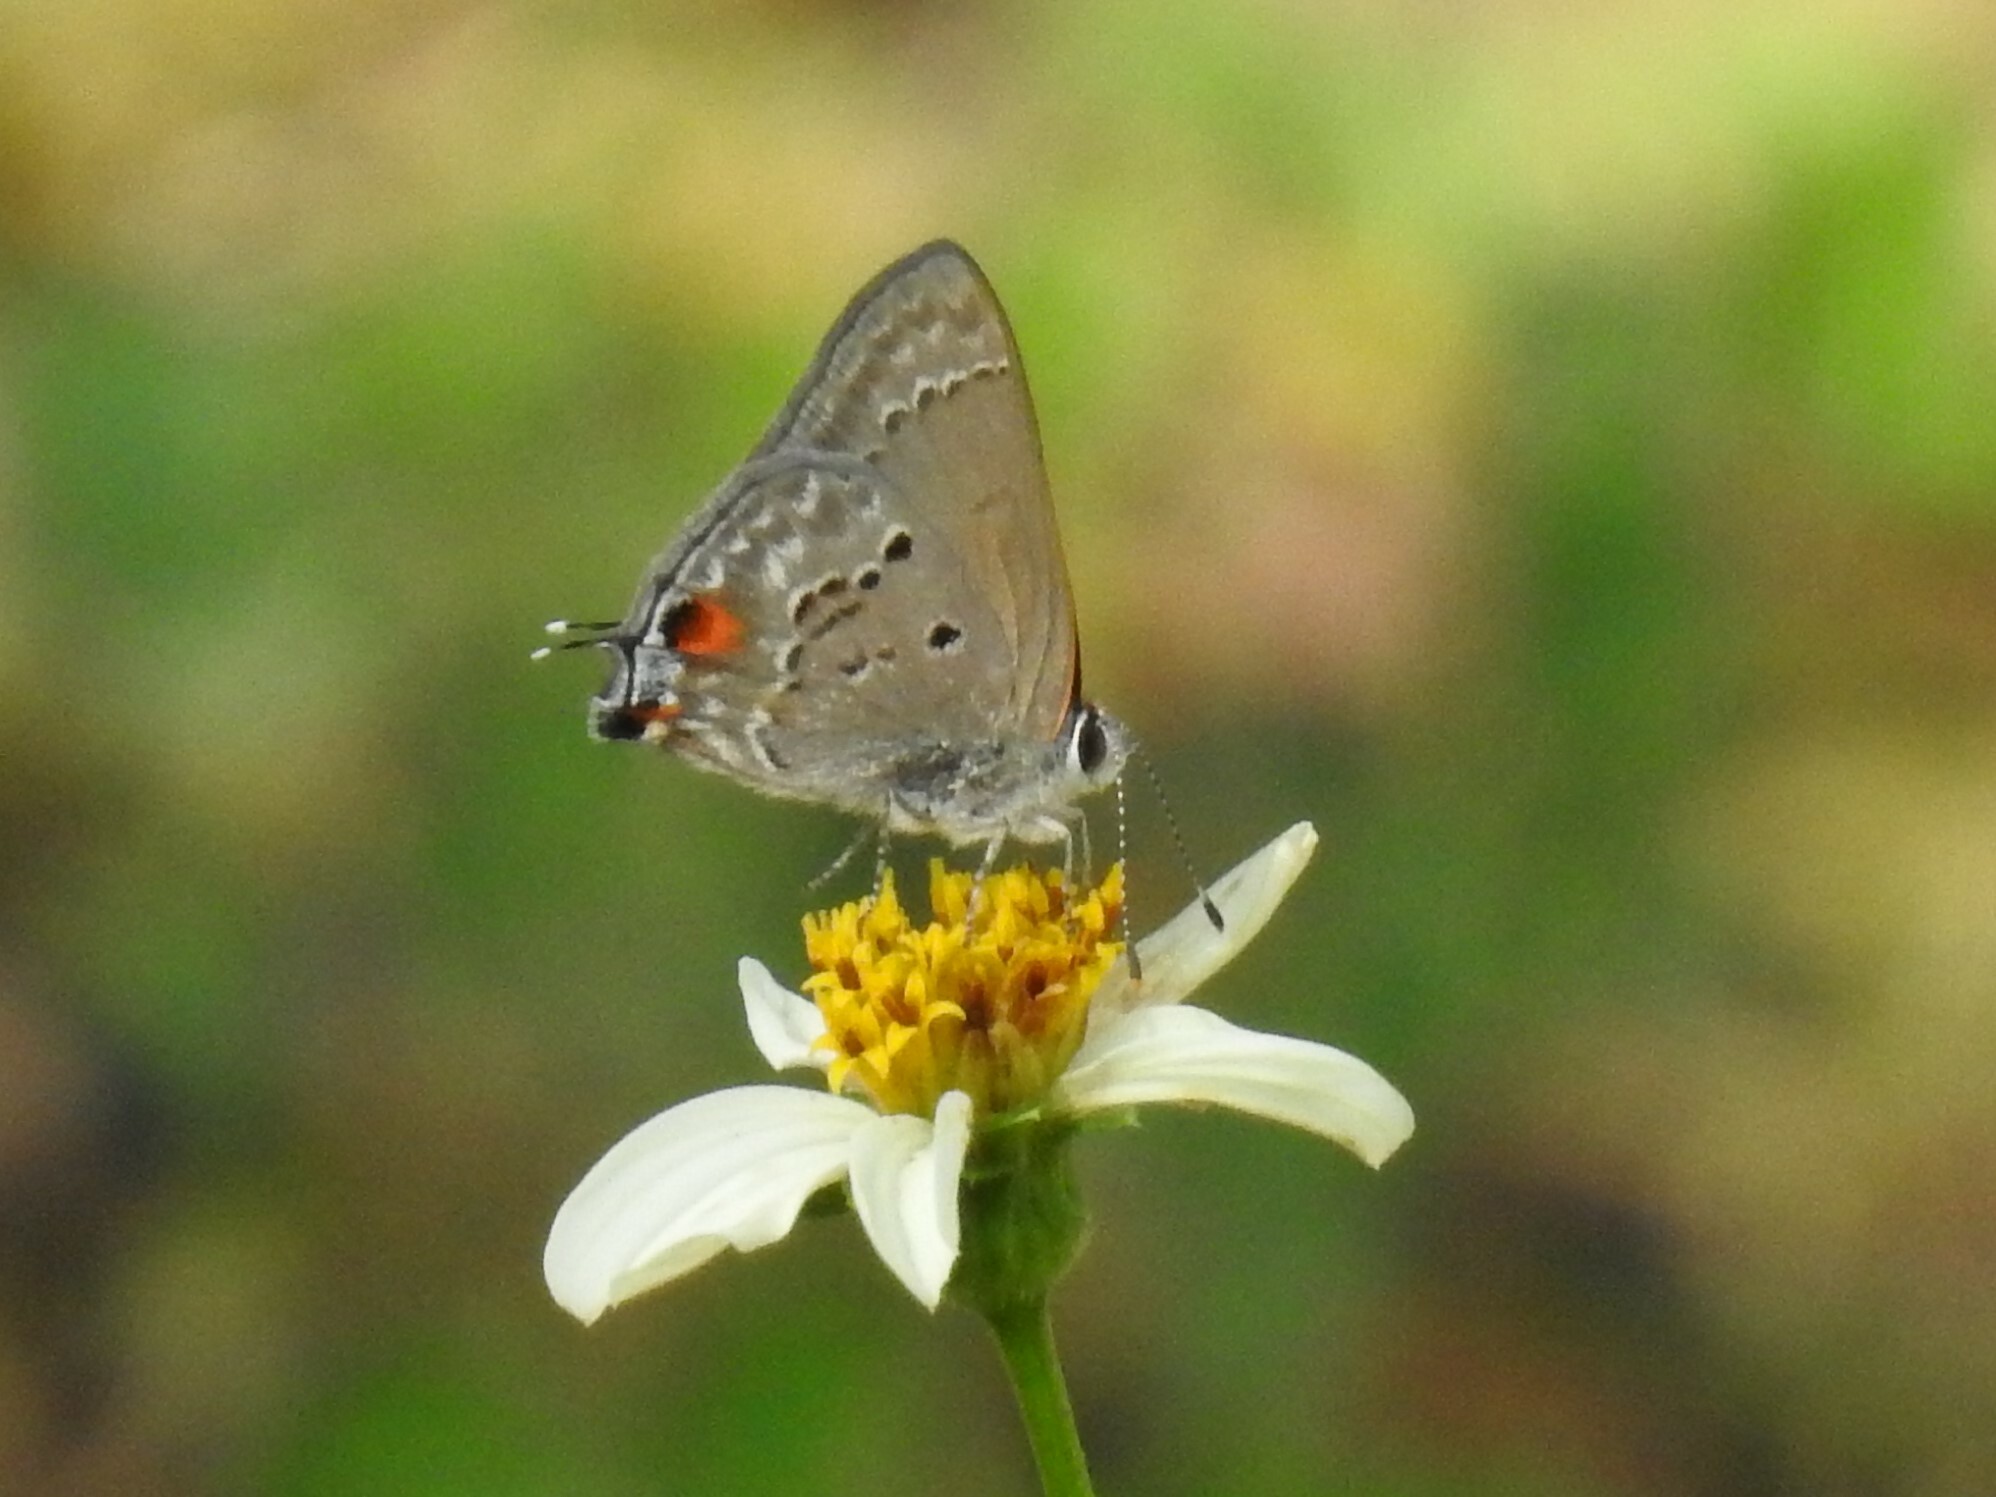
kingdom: Animalia
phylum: Arthropoda
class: Insecta
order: Lepidoptera
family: Lycaenidae
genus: Callicista
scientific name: Callicista columella
